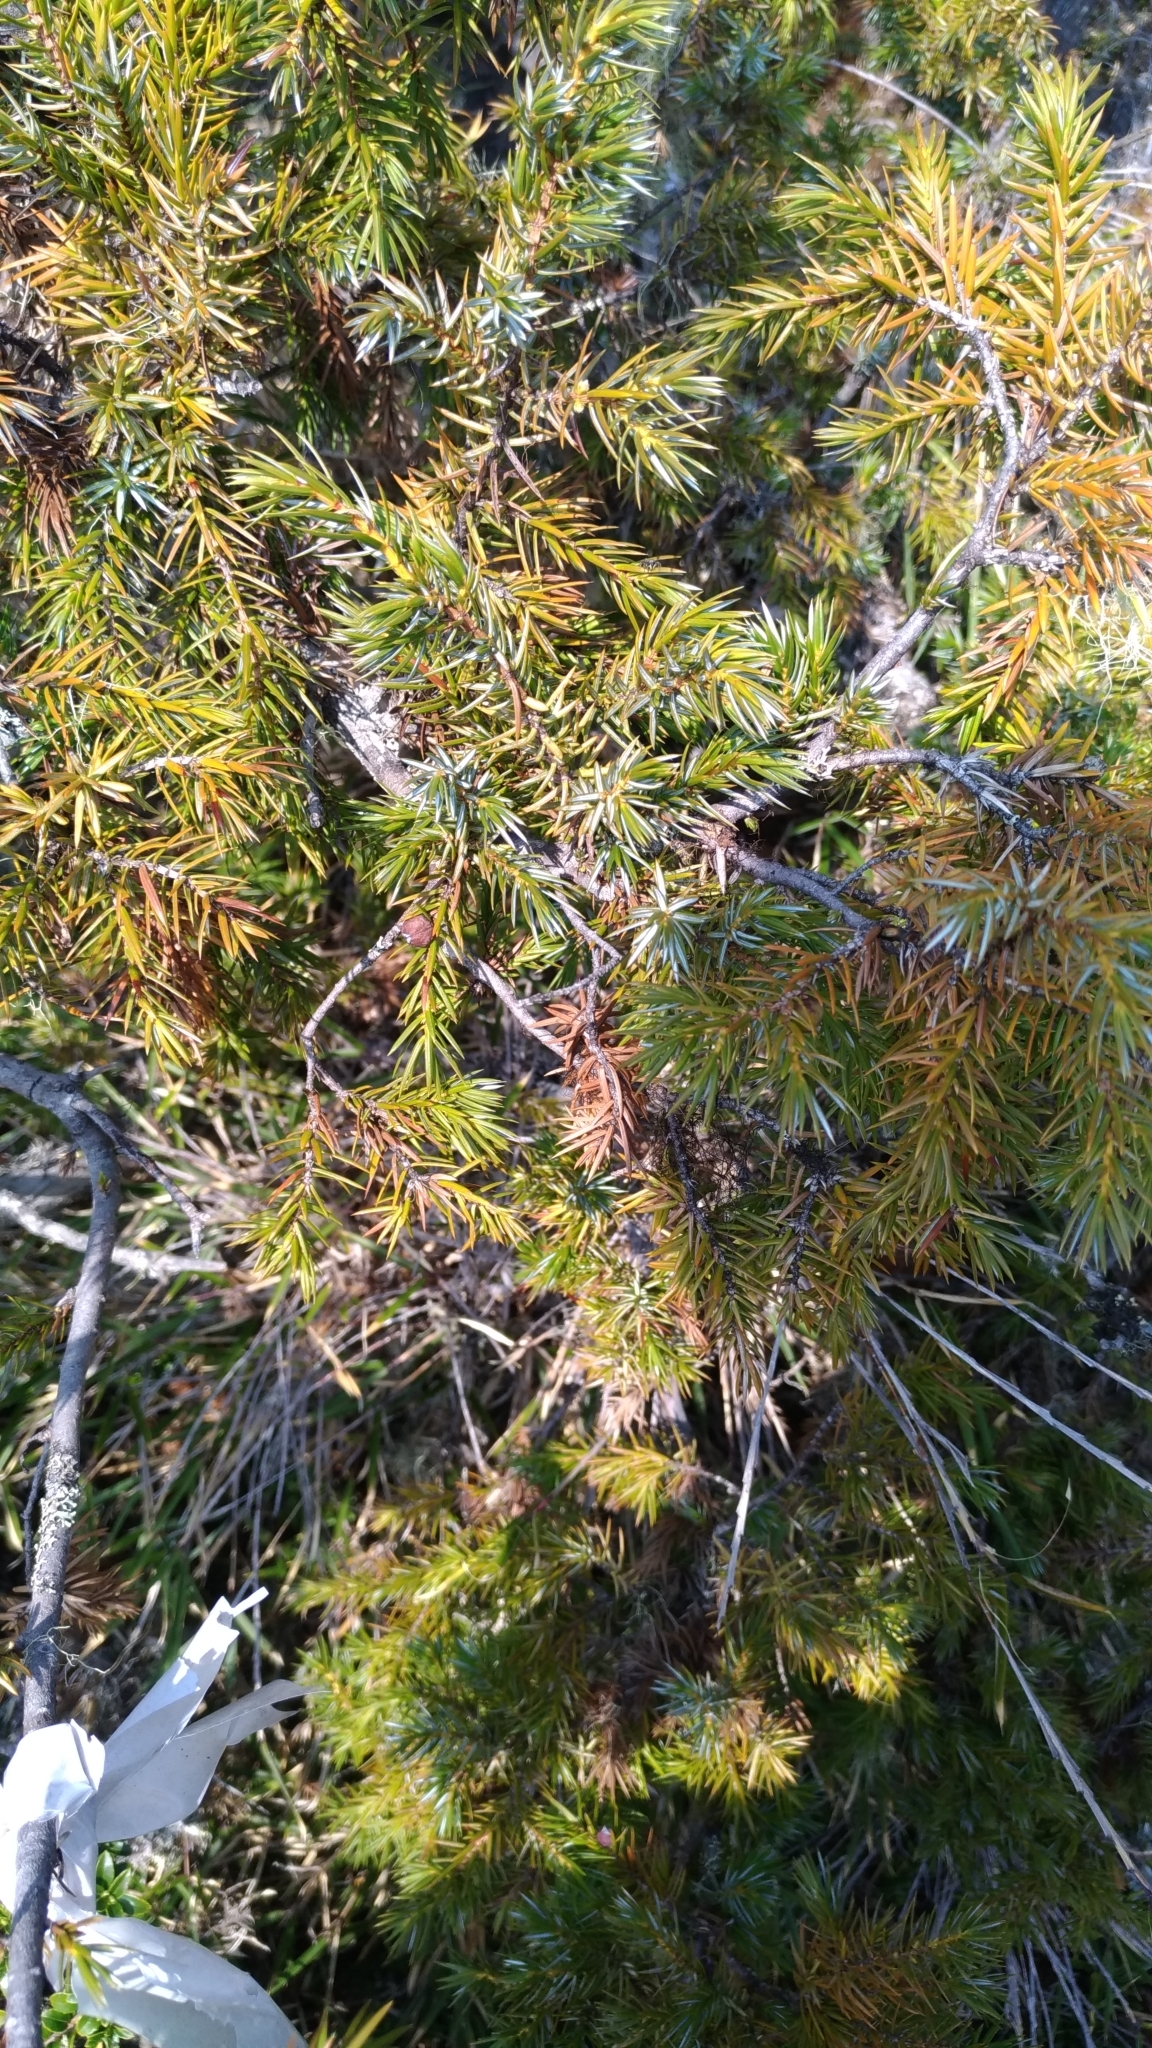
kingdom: Plantae
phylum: Tracheophyta
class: Pinopsida
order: Pinales
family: Cupressaceae
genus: Juniperus
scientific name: Juniperus formosana
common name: Formosan juniper
